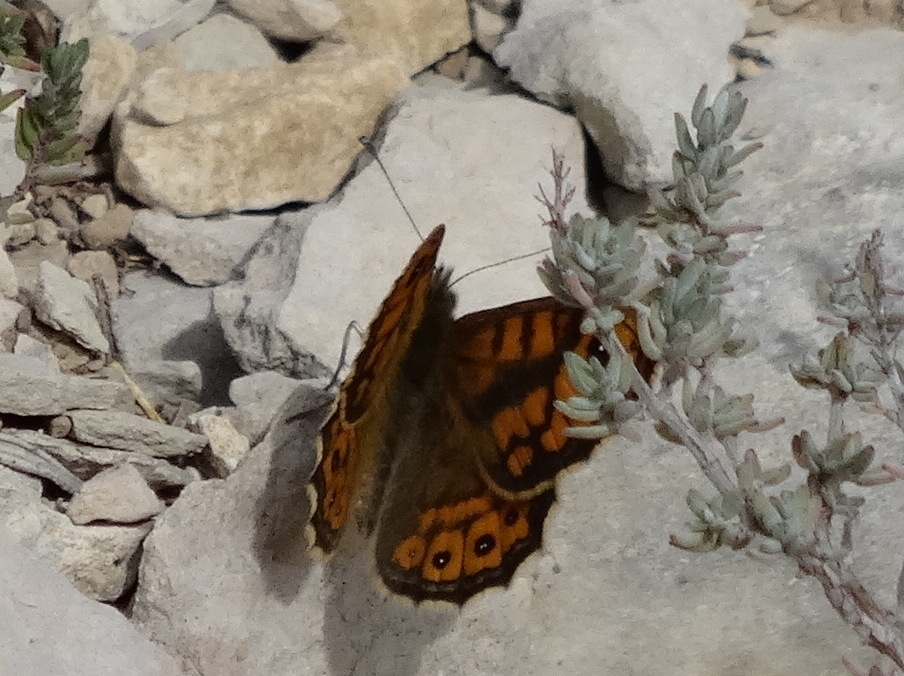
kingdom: Animalia
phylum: Arthropoda
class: Insecta
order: Lepidoptera
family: Nymphalidae
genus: Pararge
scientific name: Pararge Lasiommata megera
